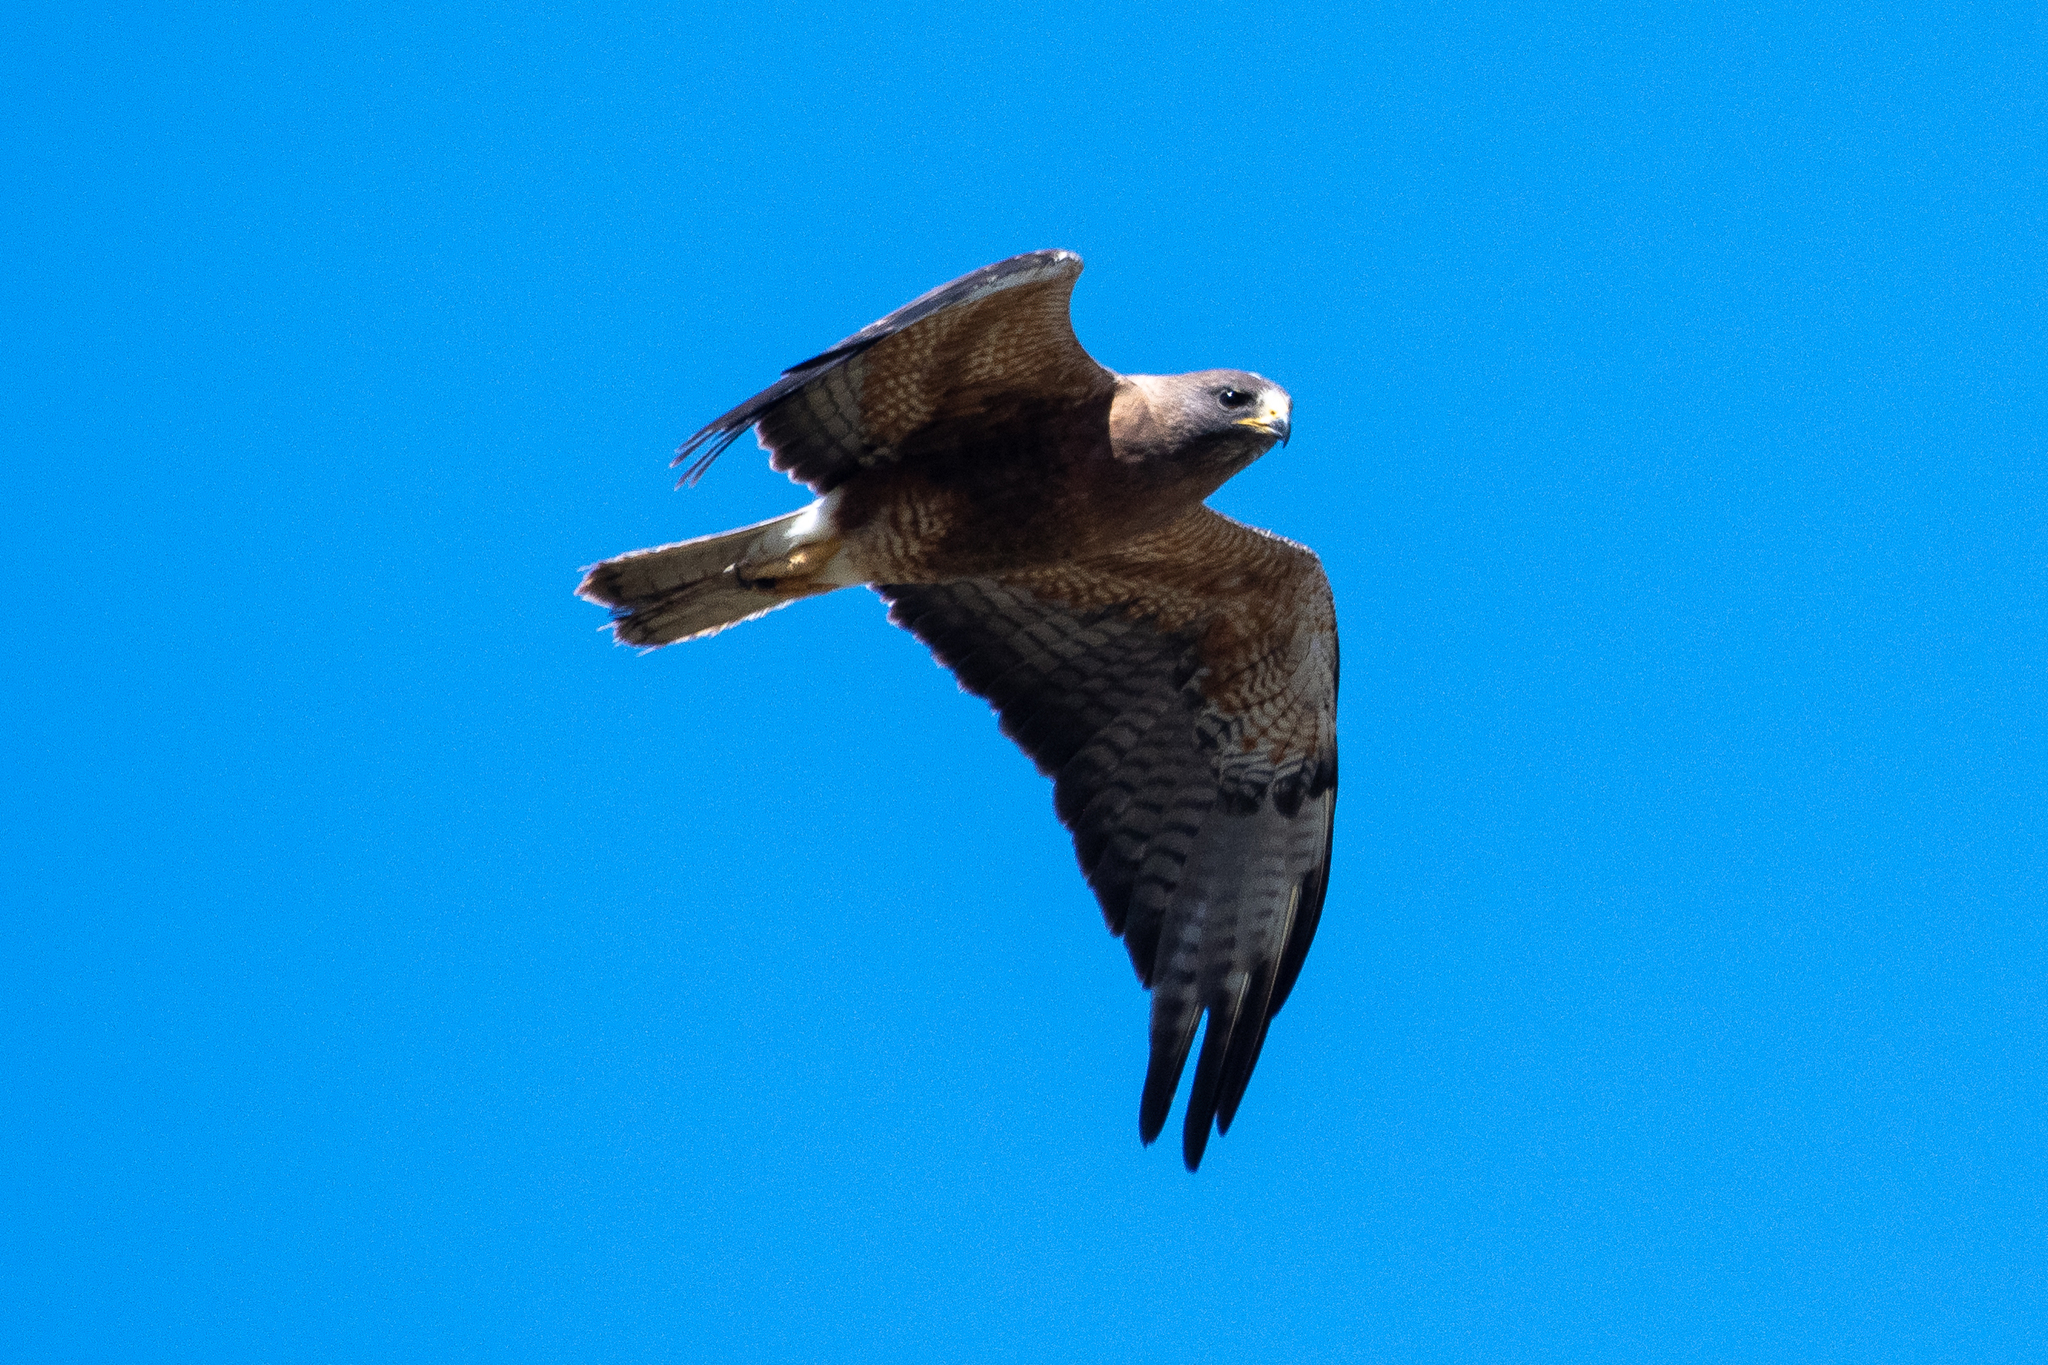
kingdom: Animalia
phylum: Chordata
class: Aves
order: Accipitriformes
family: Accipitridae
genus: Buteo
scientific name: Buteo swainsoni
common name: Swainson's hawk
